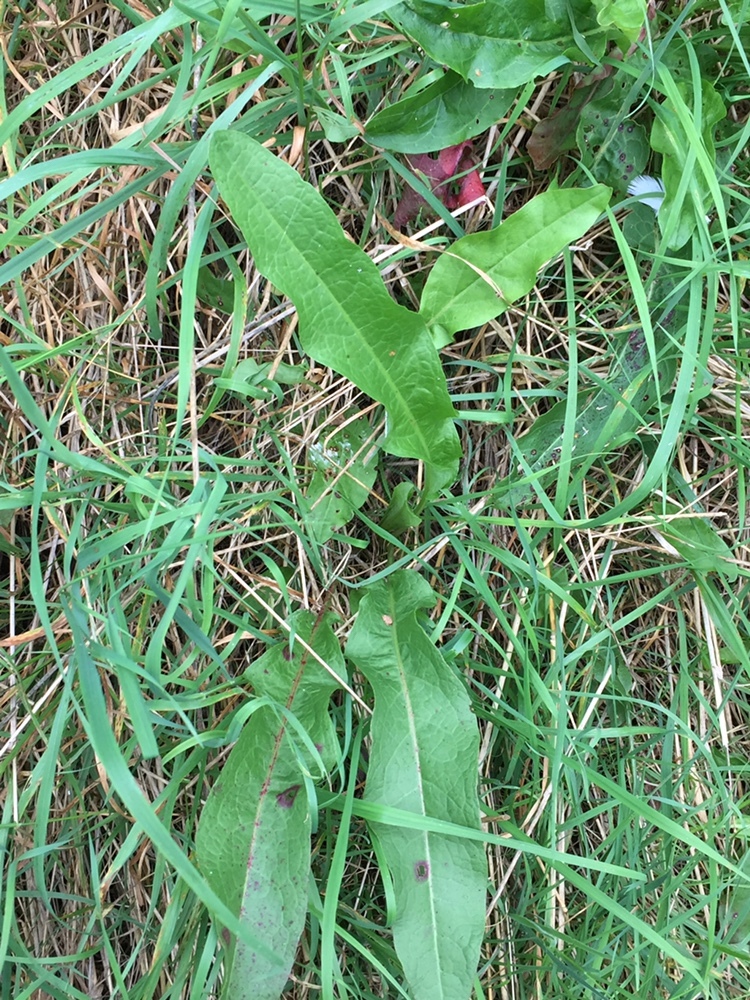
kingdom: Plantae
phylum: Tracheophyta
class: Magnoliopsida
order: Caryophyllales
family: Polygonaceae
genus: Rumex
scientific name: Rumex crispus
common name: Curled dock
